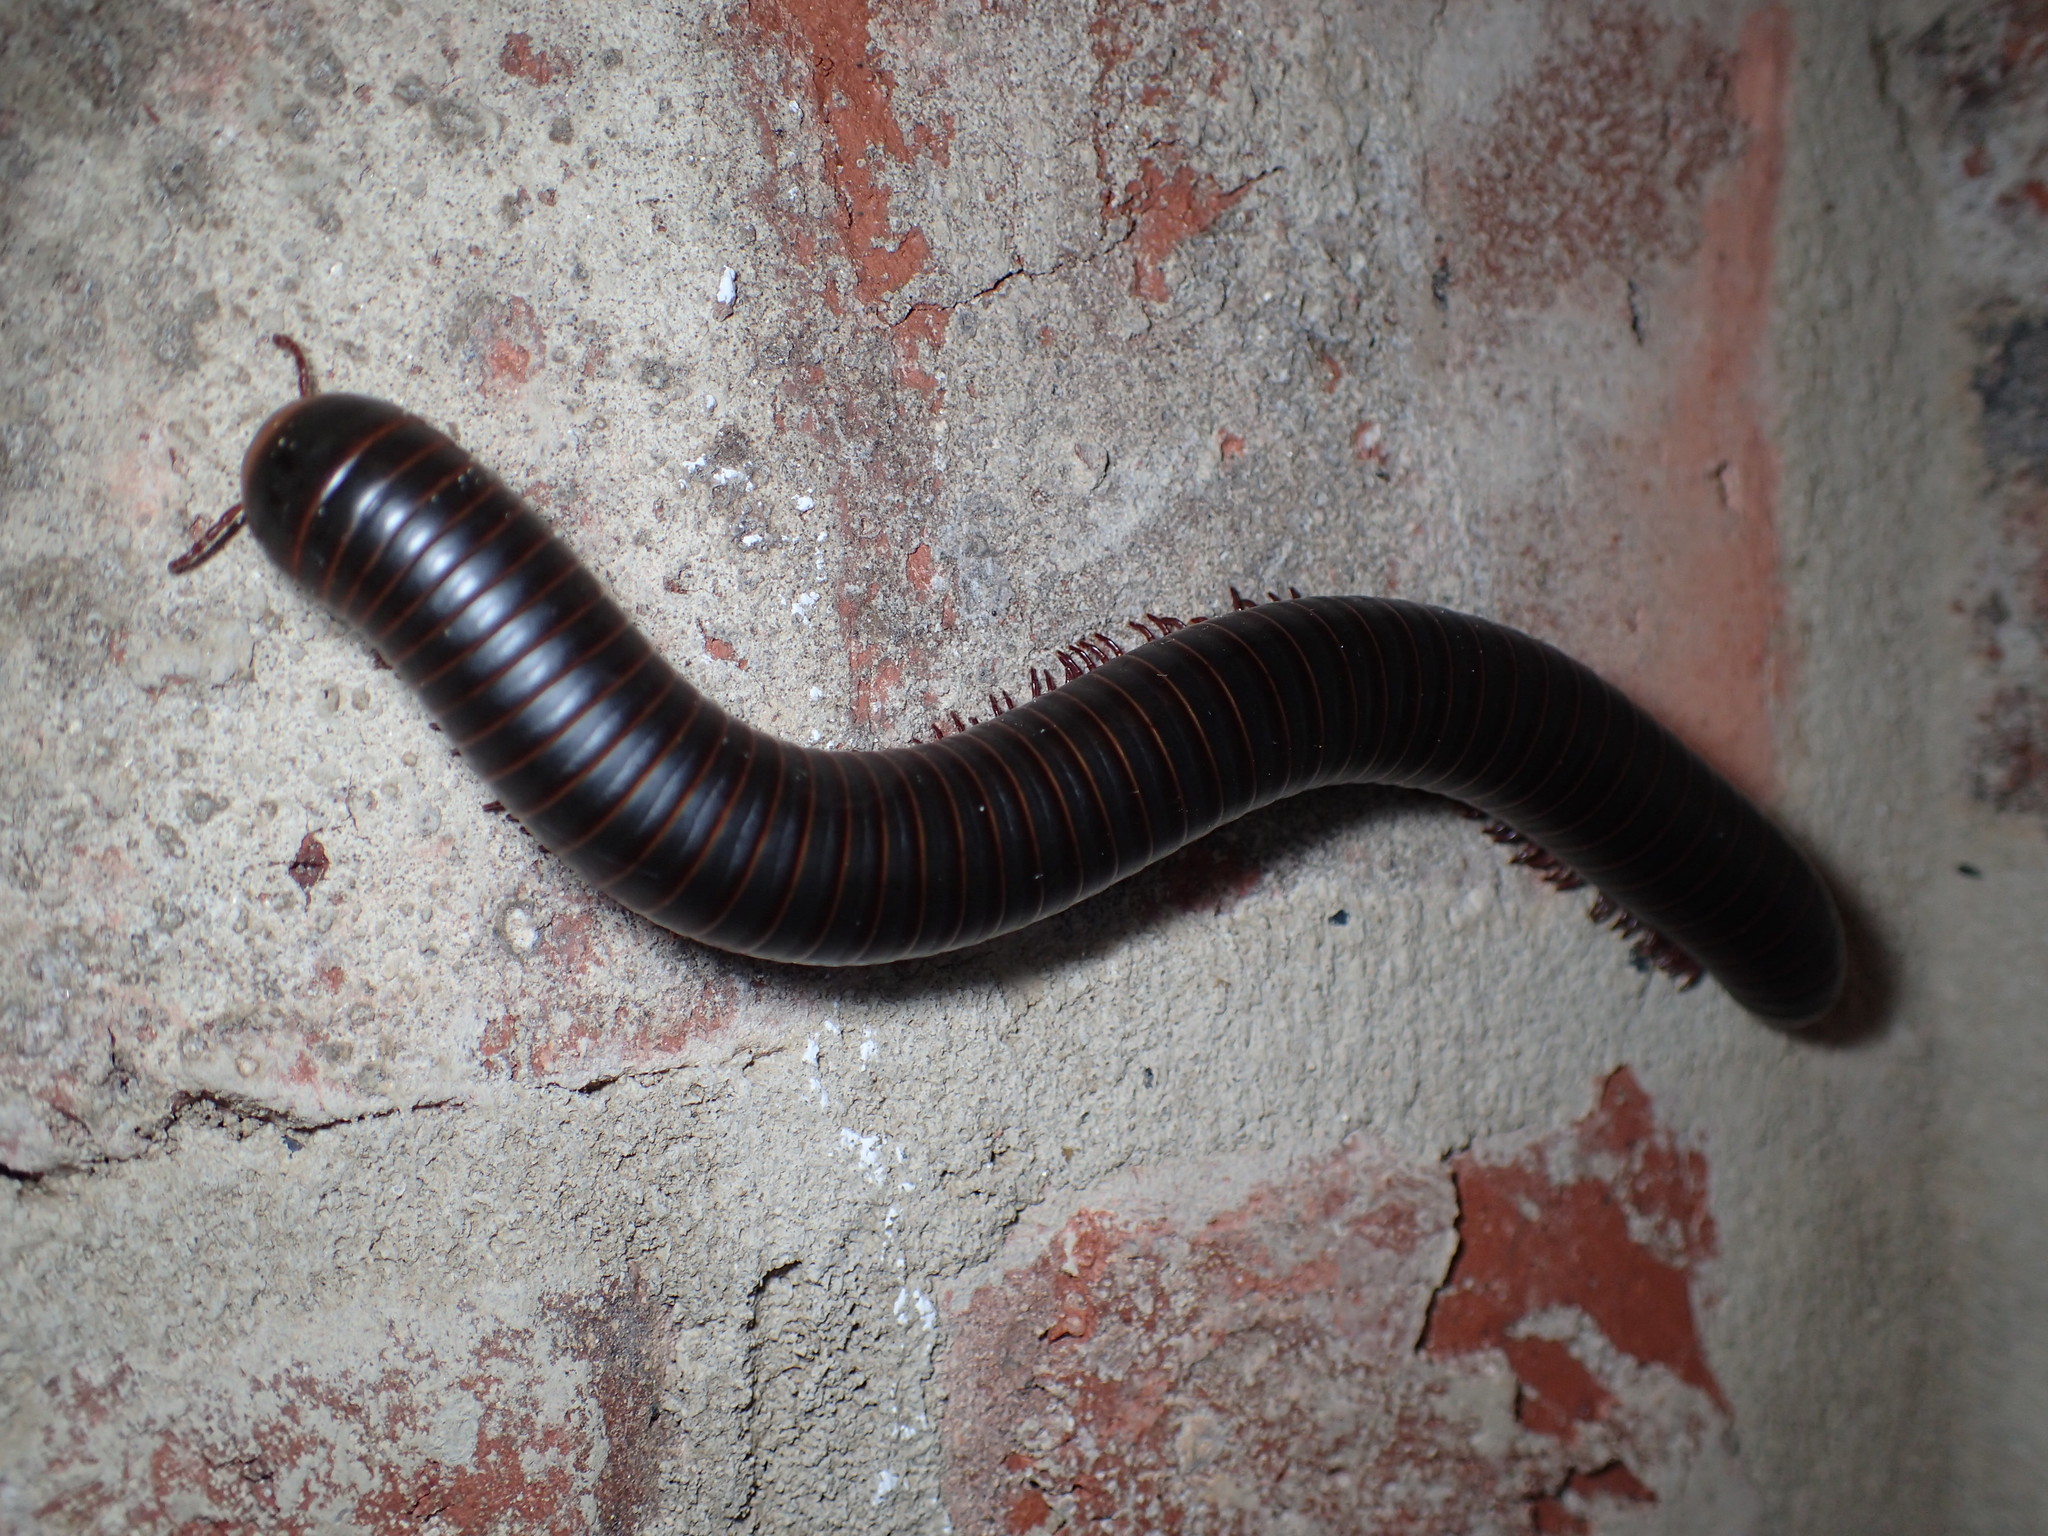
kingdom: Animalia
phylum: Arthropoda
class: Diplopoda
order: Spirobolida
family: Spirobolidae
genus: Narceus
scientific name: Narceus
